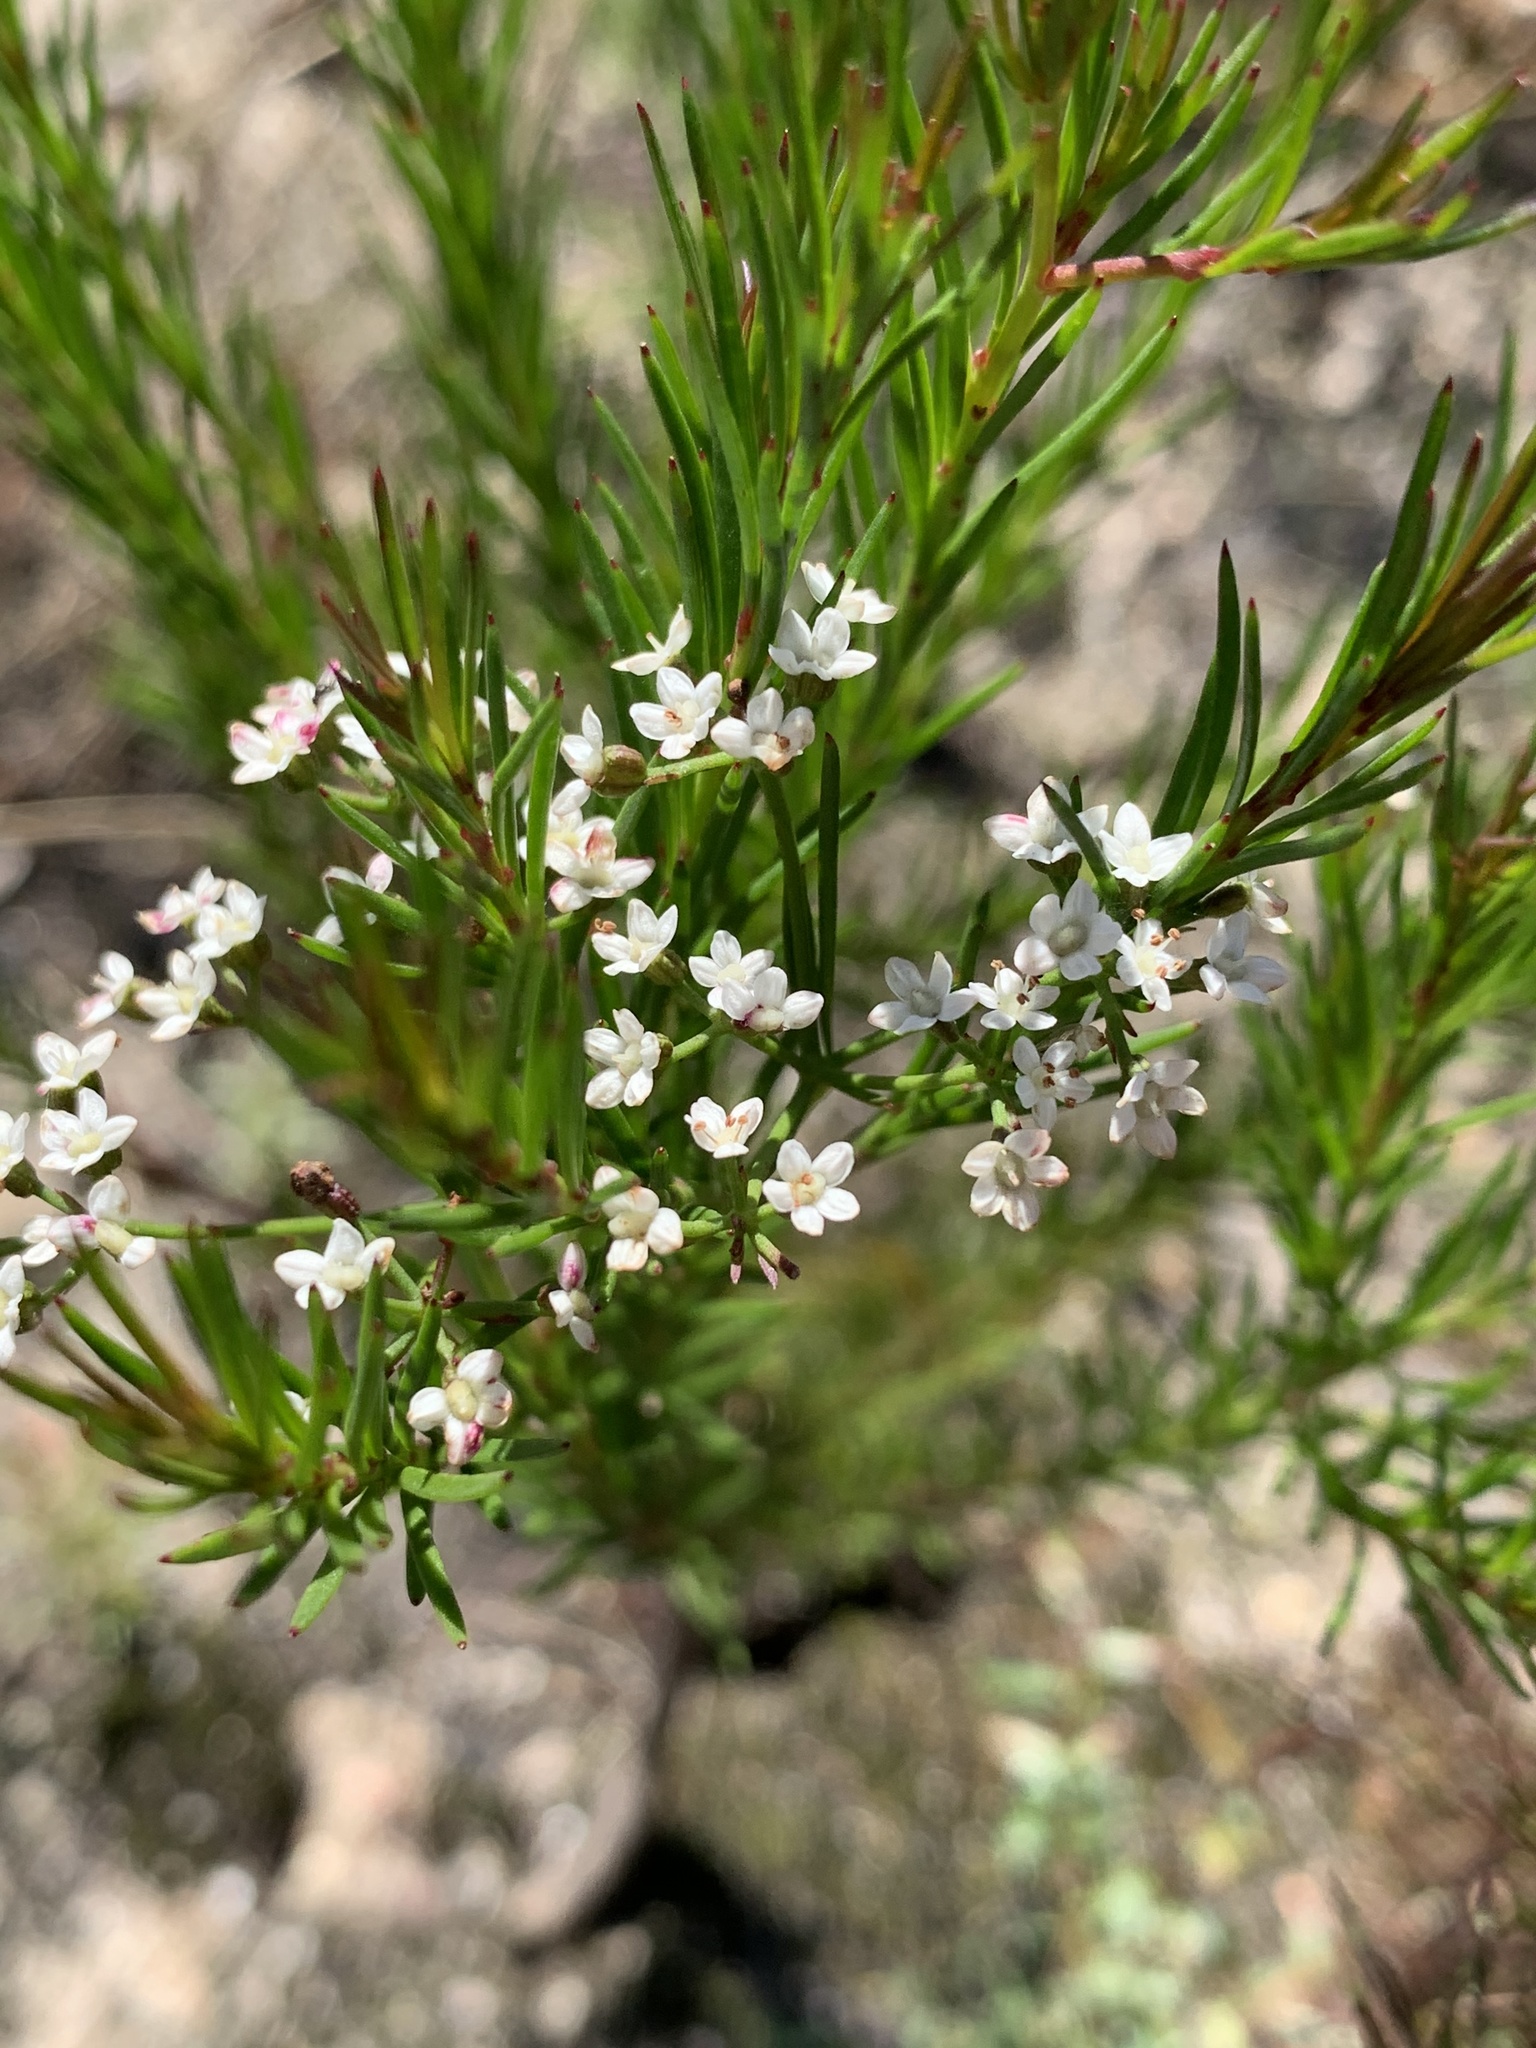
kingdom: Plantae
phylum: Tracheophyta
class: Magnoliopsida
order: Apiales
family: Apiaceae
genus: Platysace
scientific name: Platysace linearifolia
